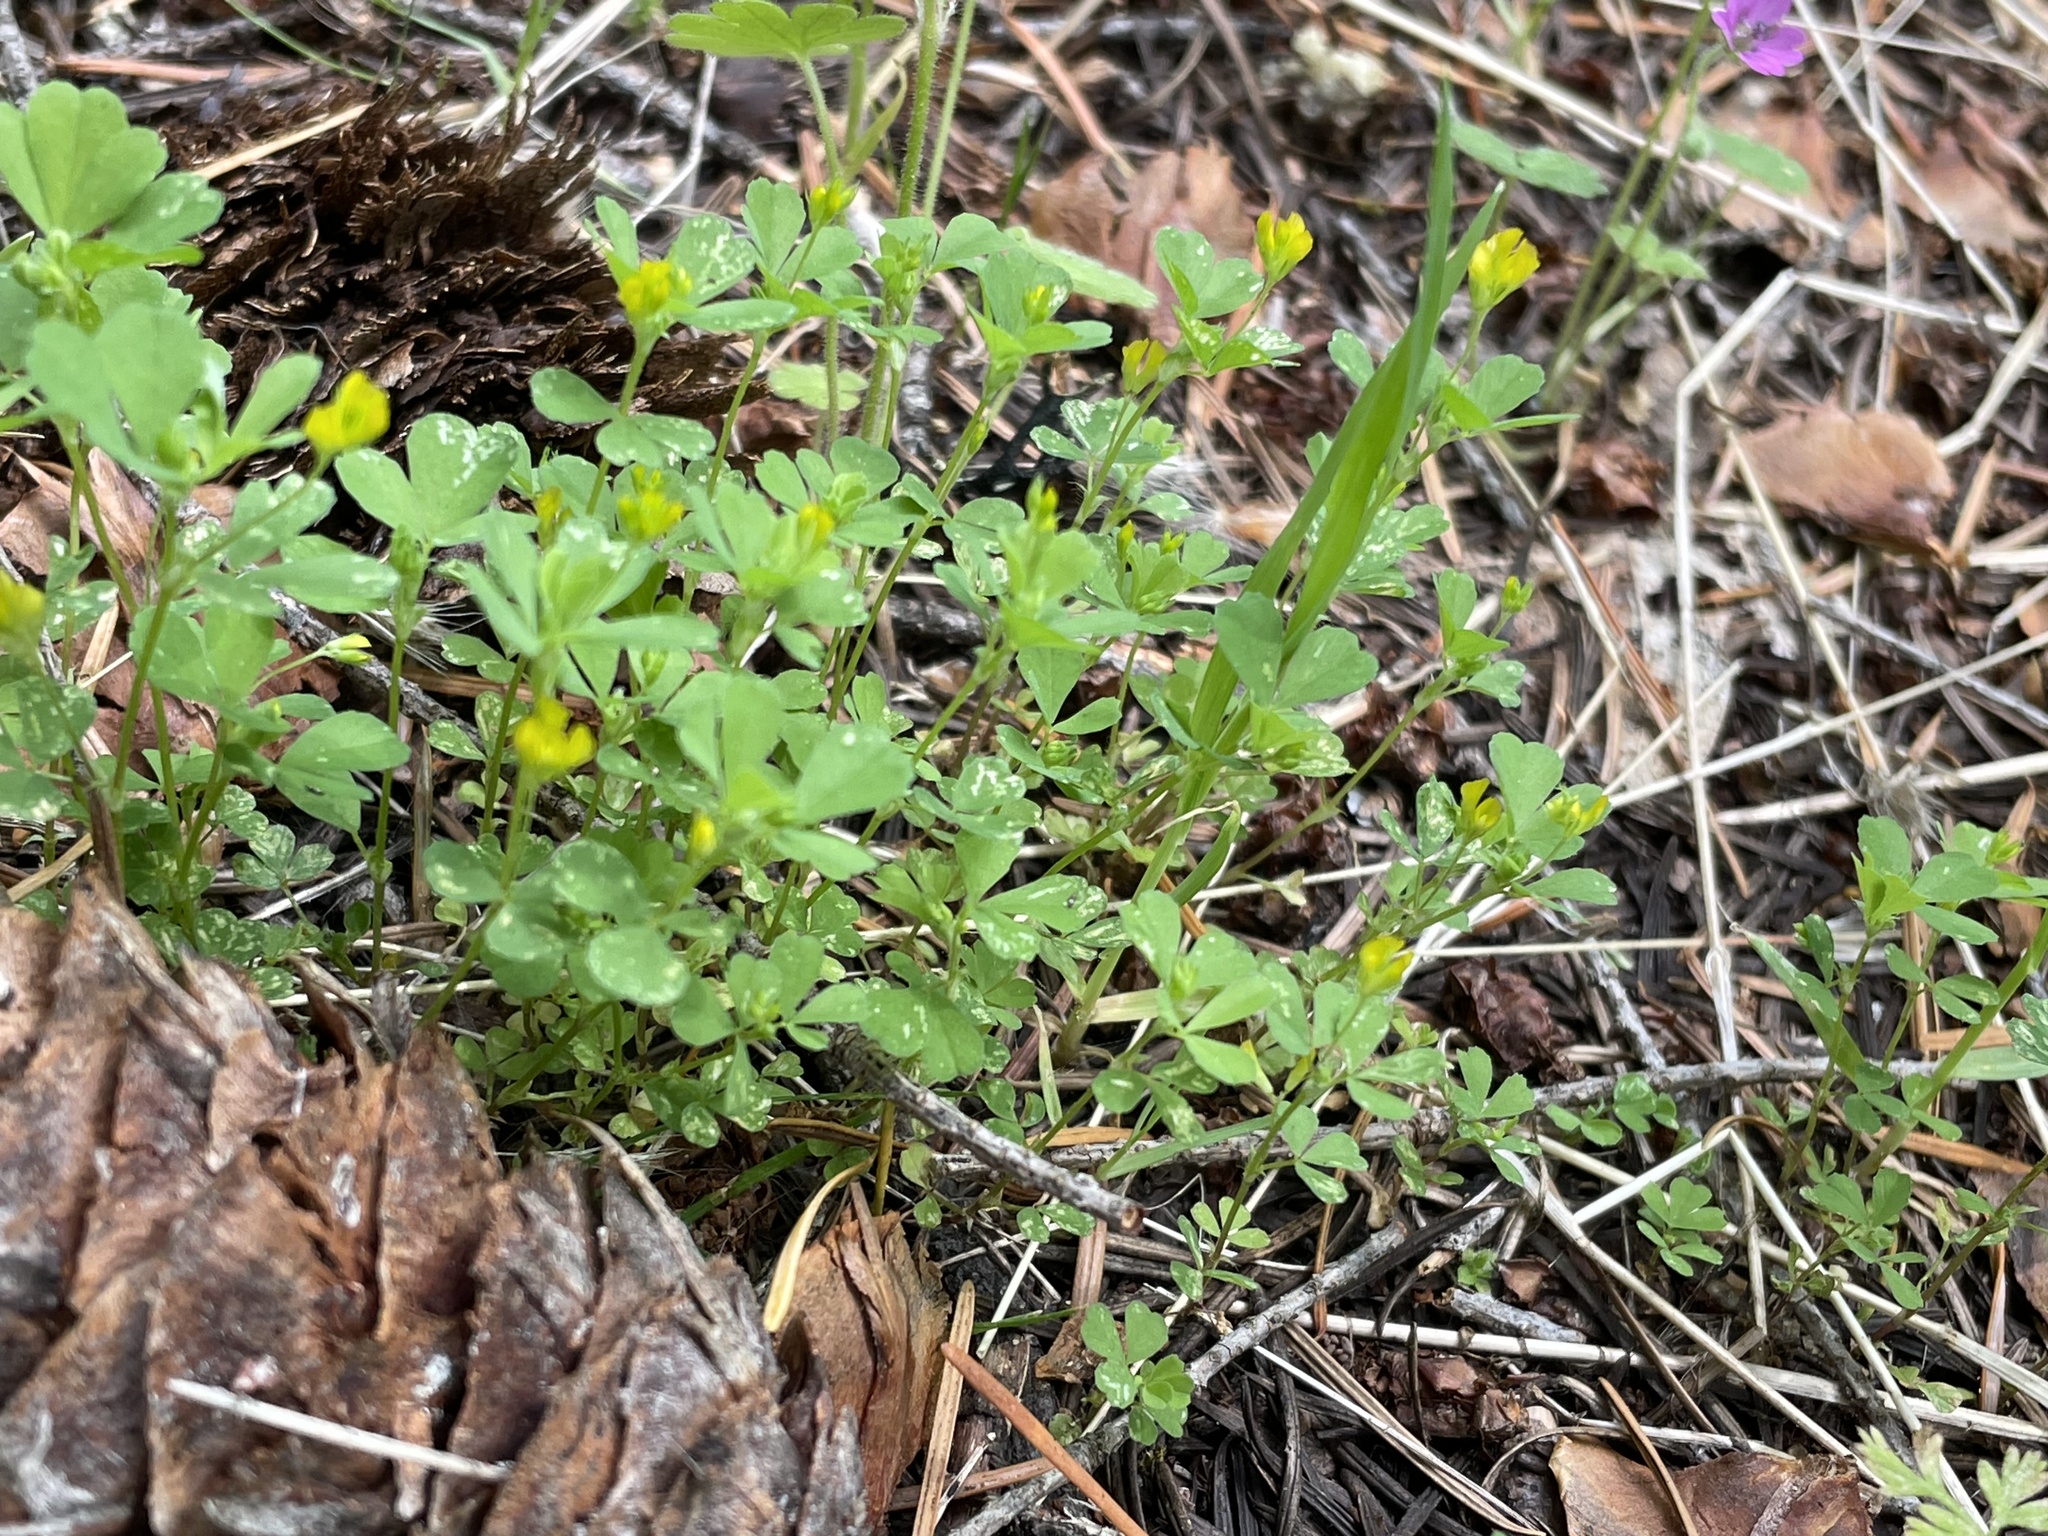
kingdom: Plantae
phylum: Tracheophyta
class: Magnoliopsida
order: Fabales
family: Fabaceae
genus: Trifolium
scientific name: Trifolium dubium
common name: Suckling clover
